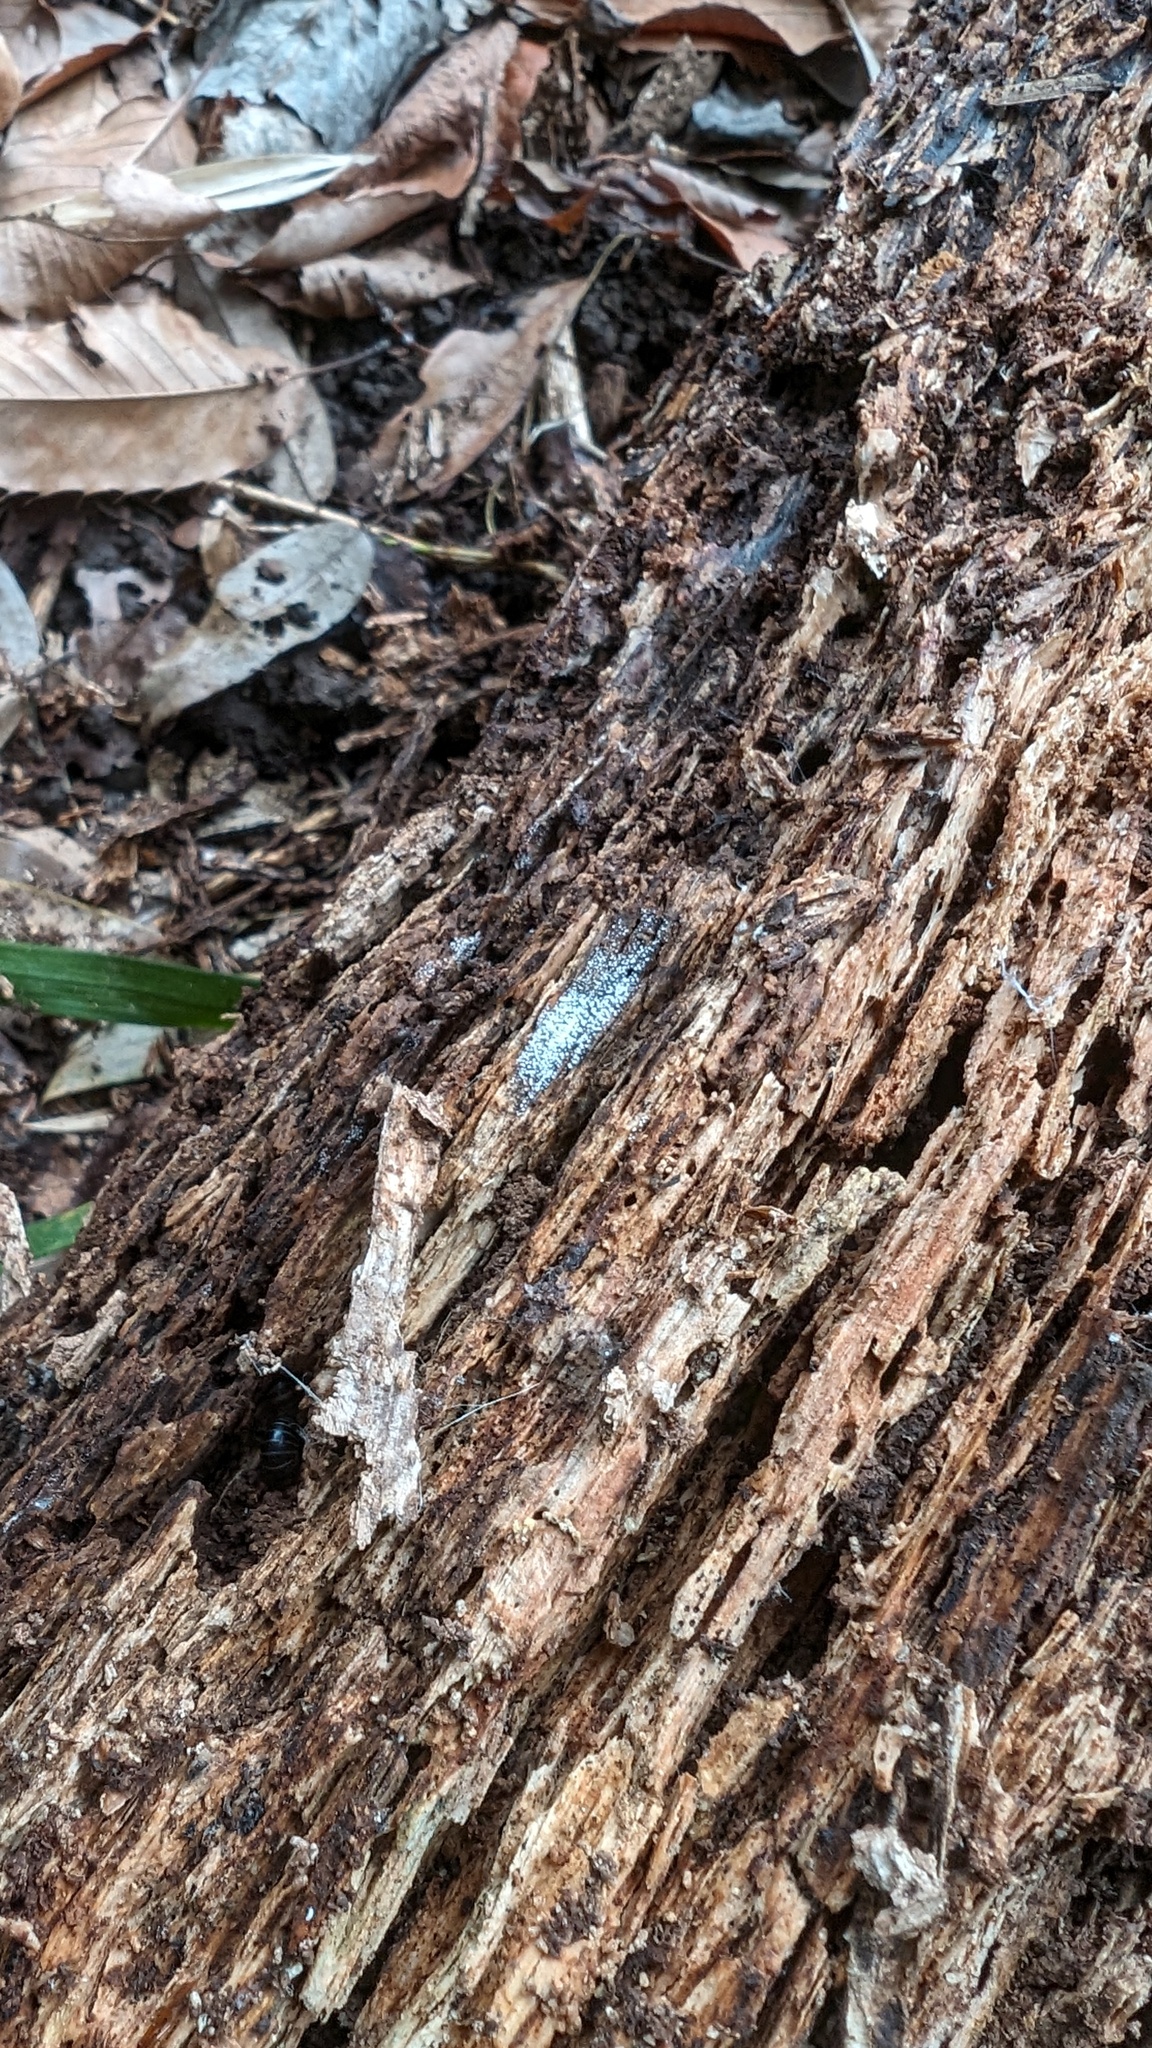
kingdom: Fungi
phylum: Basidiomycota
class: Agaricomycetes
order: Agaricales
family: Marasmiaceae
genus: Henningsomyces
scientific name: Henningsomyces candidus
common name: White tubelet
